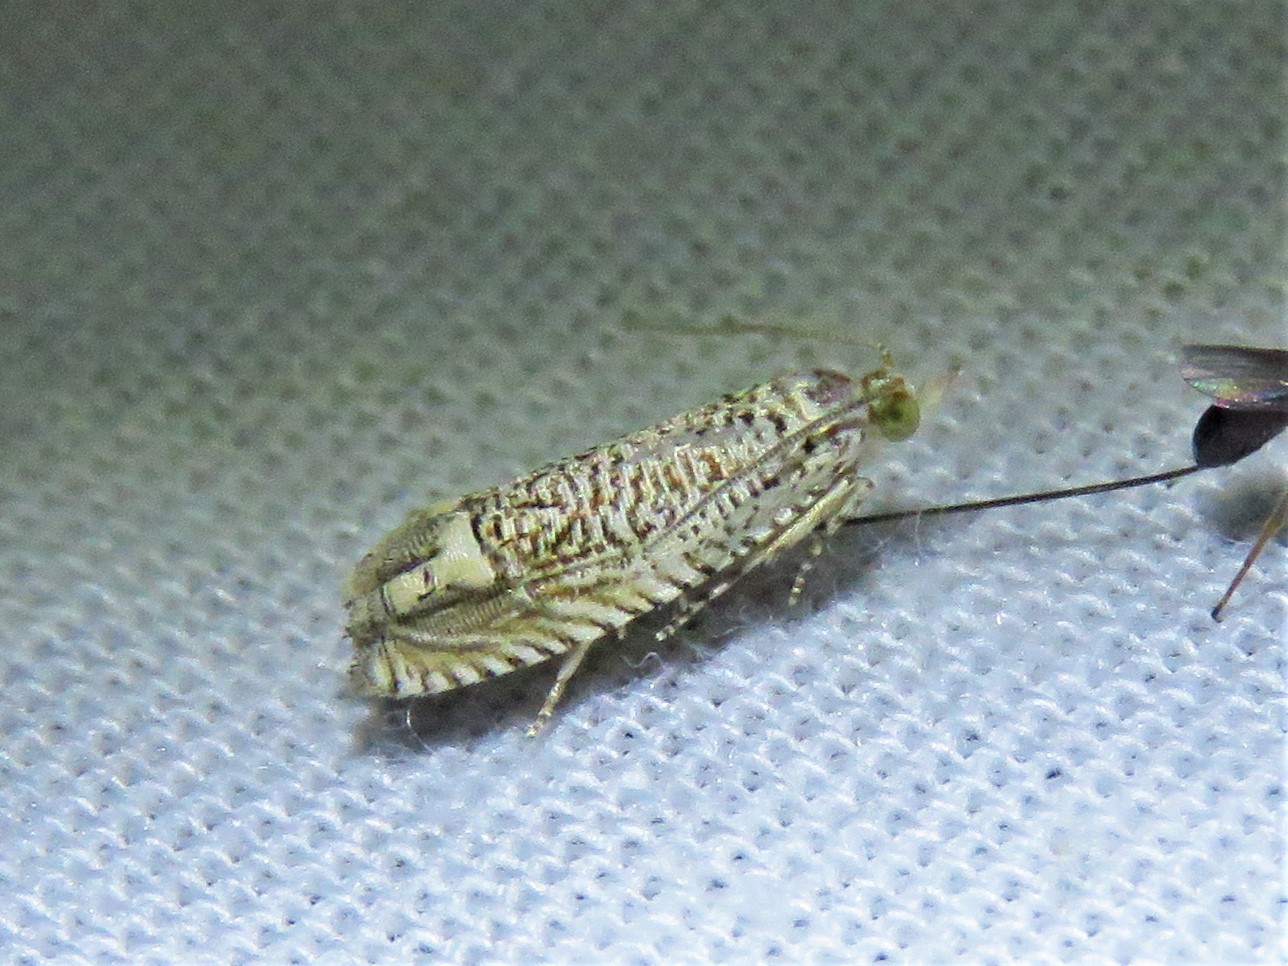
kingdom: Animalia
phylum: Arthropoda
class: Insecta
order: Lepidoptera
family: Tortricidae
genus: Eucosma
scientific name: Eucosma argutipunctana
